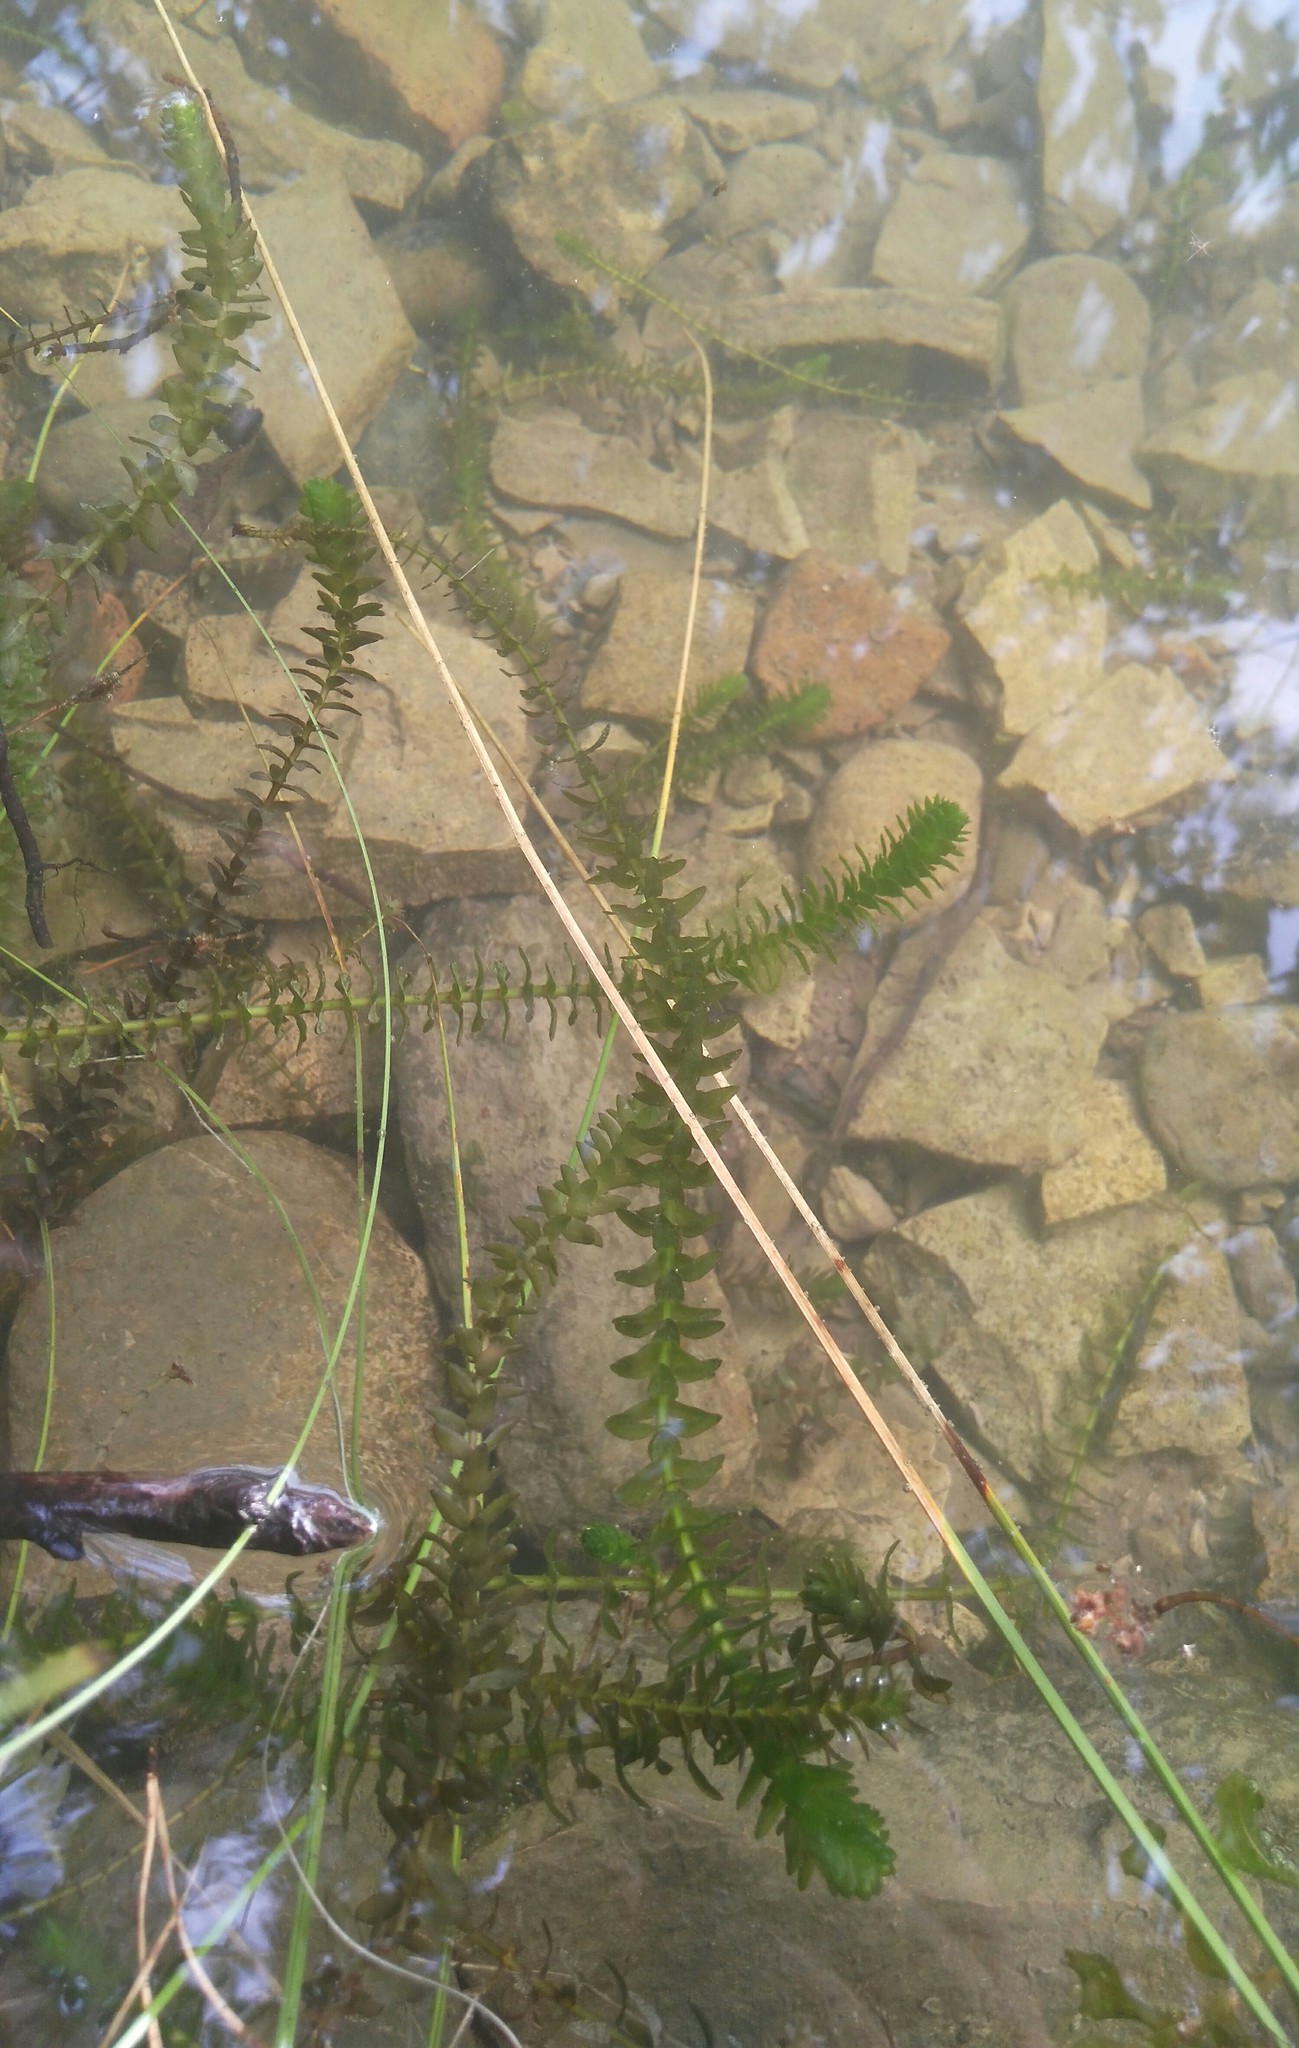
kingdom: Plantae
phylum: Tracheophyta
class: Liliopsida
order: Alismatales
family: Hydrocharitaceae
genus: Elodea
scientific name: Elodea canadensis
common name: Canadian waterweed
